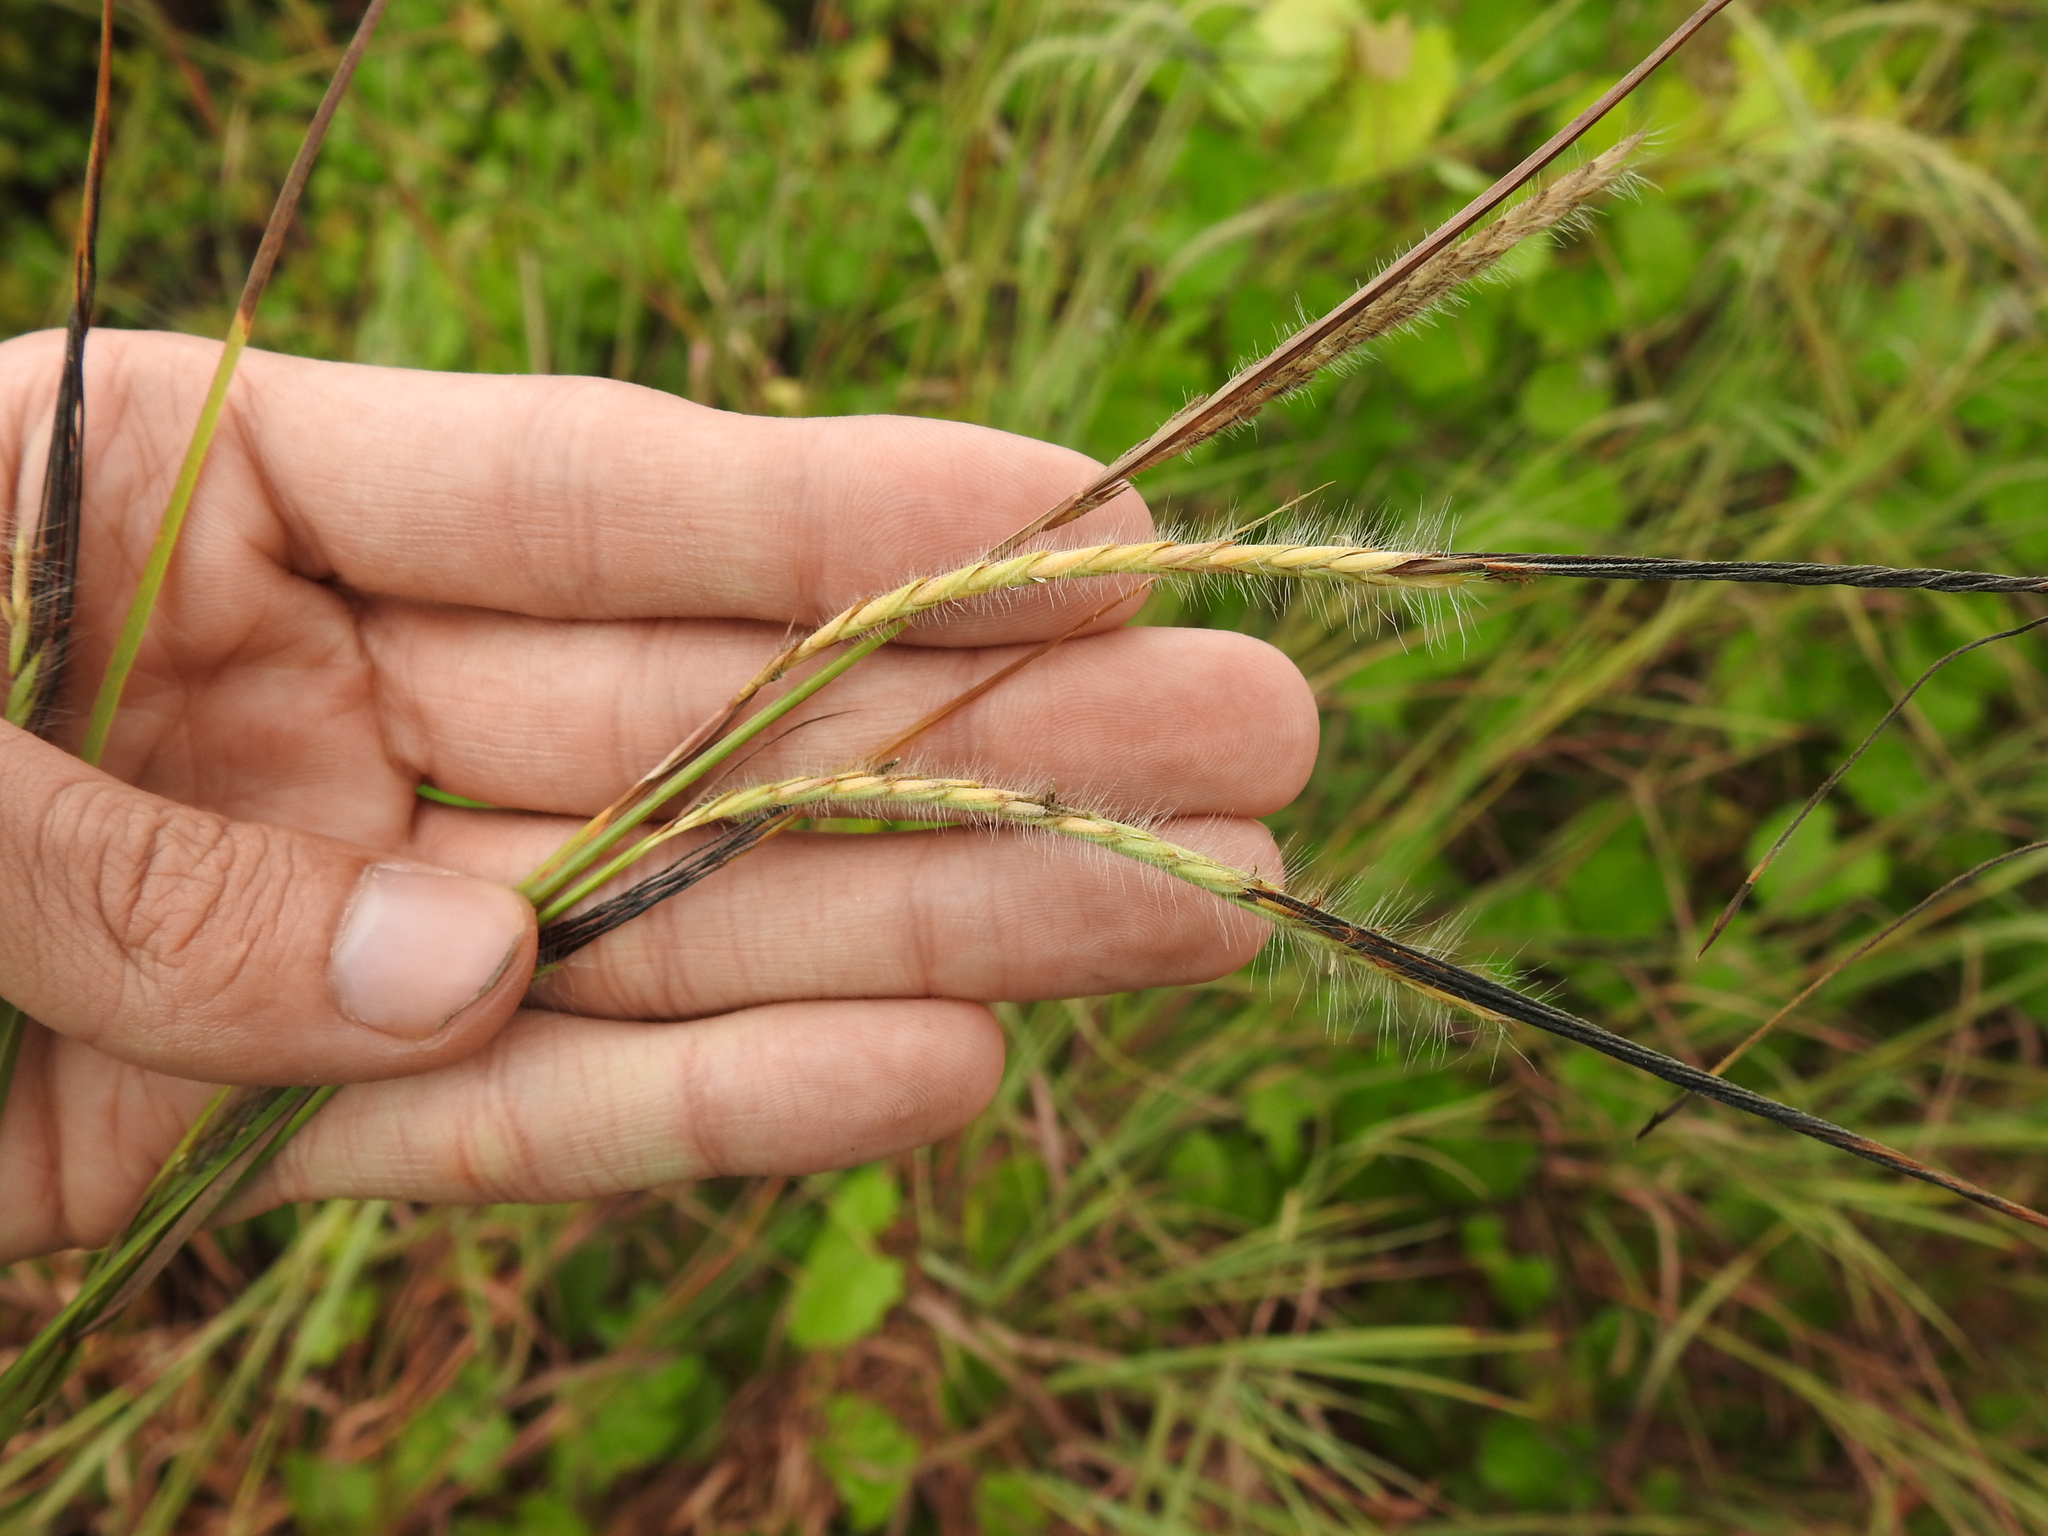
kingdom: Plantae
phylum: Tracheophyta
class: Liliopsida
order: Poales
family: Poaceae
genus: Heteropogon
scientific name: Heteropogon contortus
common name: Tanglehead
